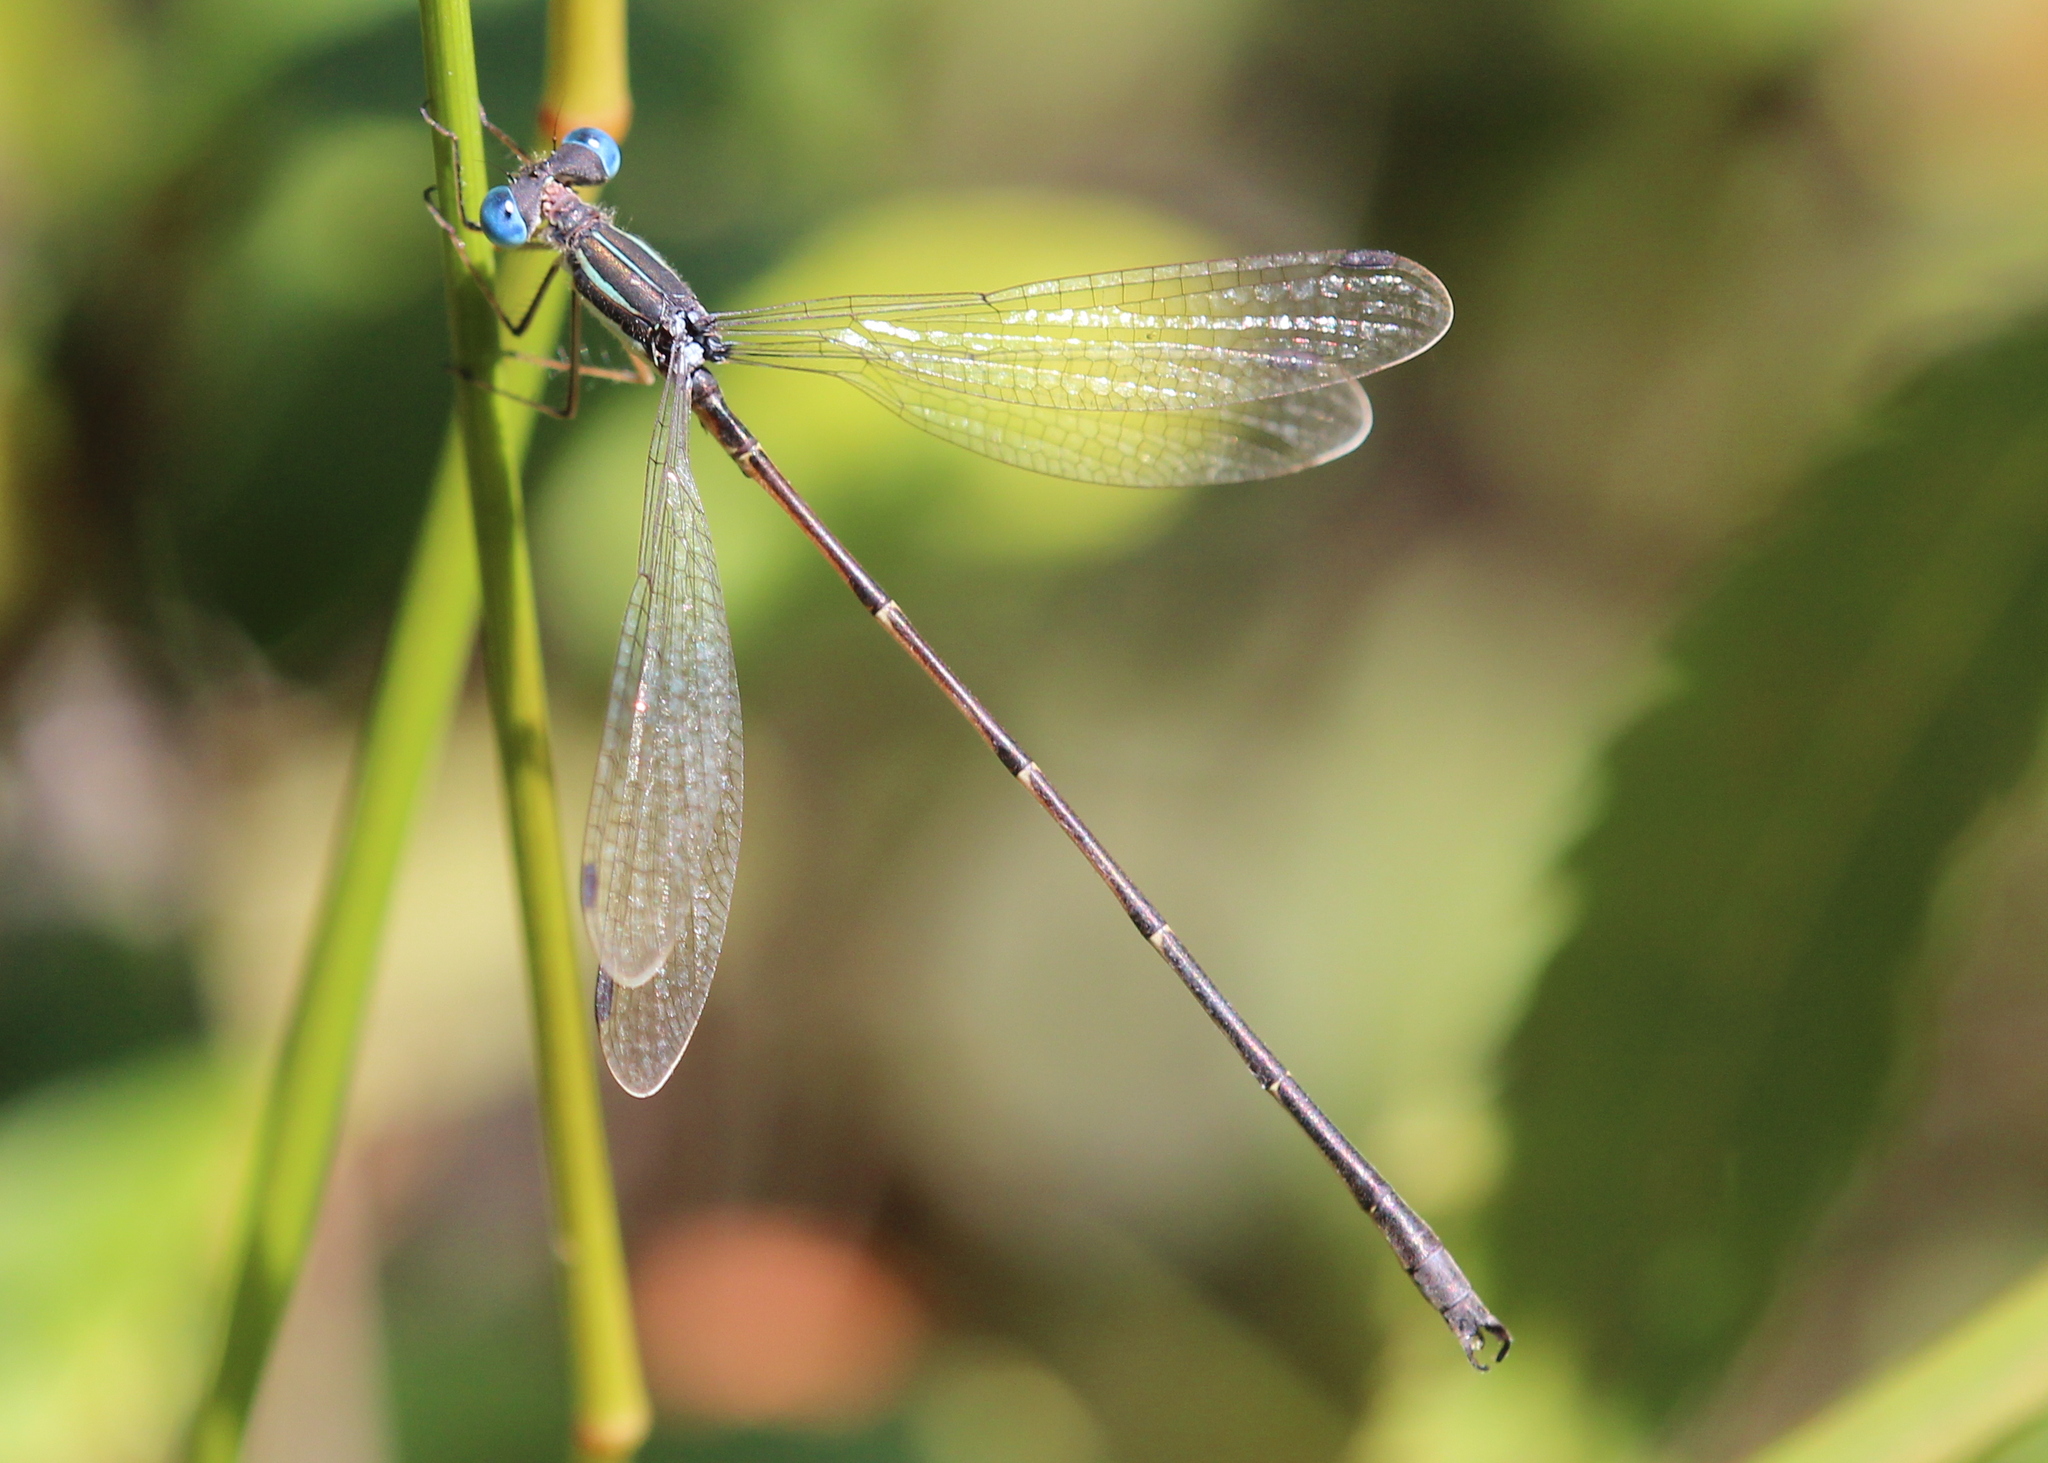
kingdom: Animalia
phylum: Arthropoda
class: Insecta
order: Odonata
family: Lestidae
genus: Lestes
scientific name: Lestes rectangularis
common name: Slender spreadwing
